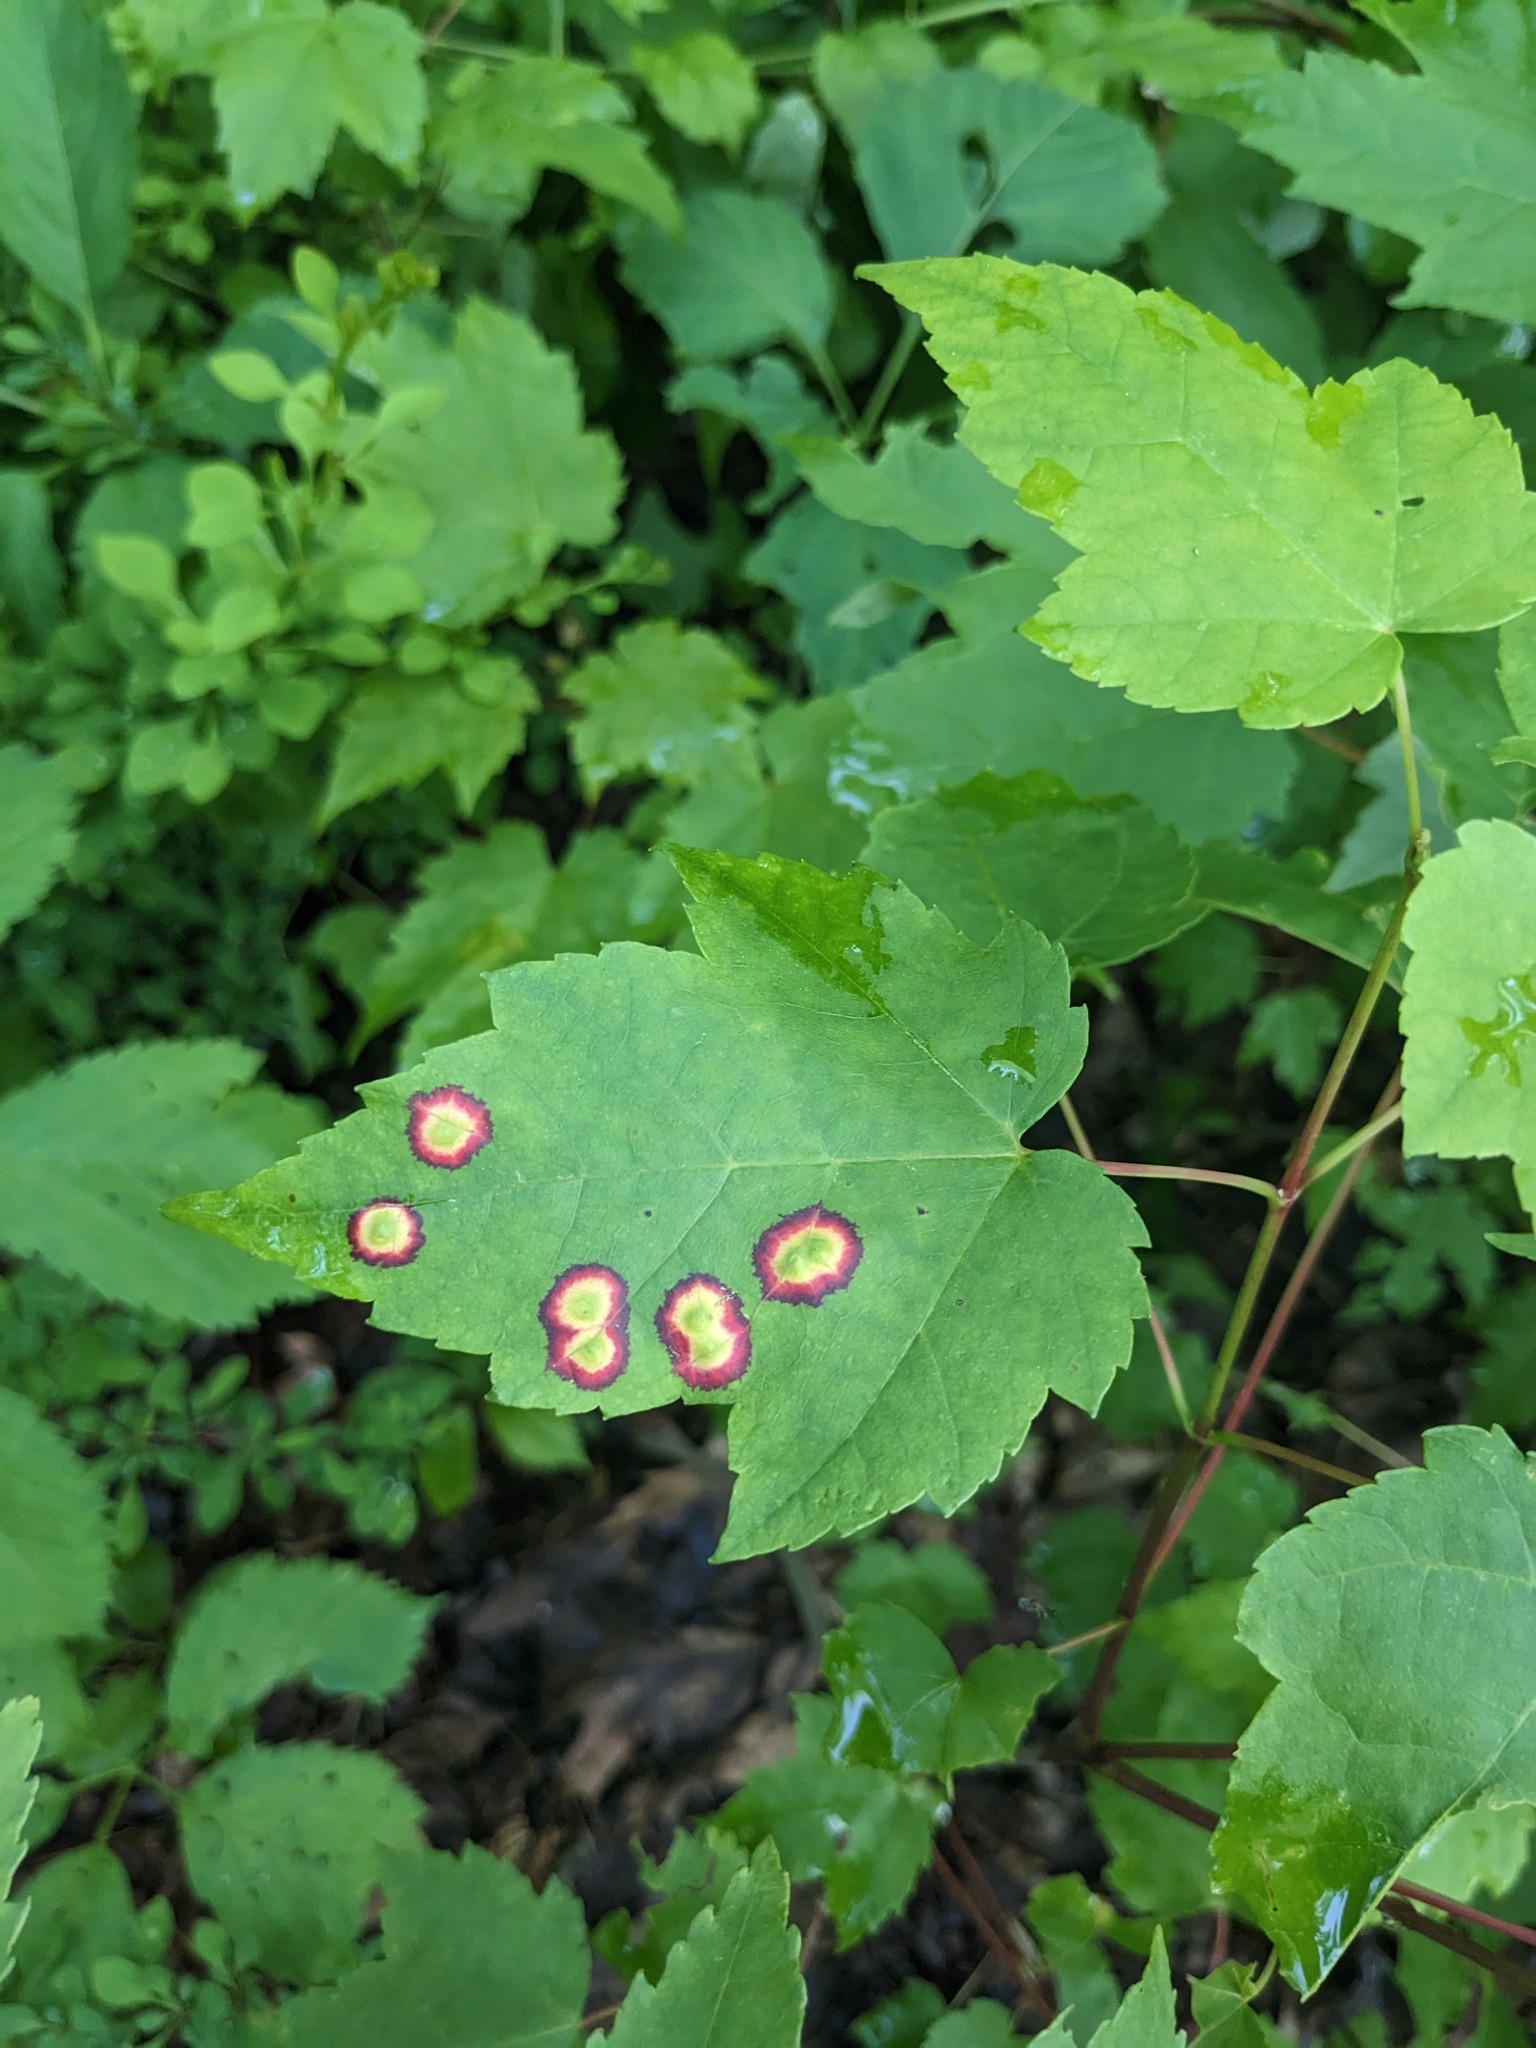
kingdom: Animalia
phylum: Arthropoda
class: Insecta
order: Diptera
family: Cecidomyiidae
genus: Acericecis
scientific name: Acericecis ocellaris
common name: Ocellate gall midge
